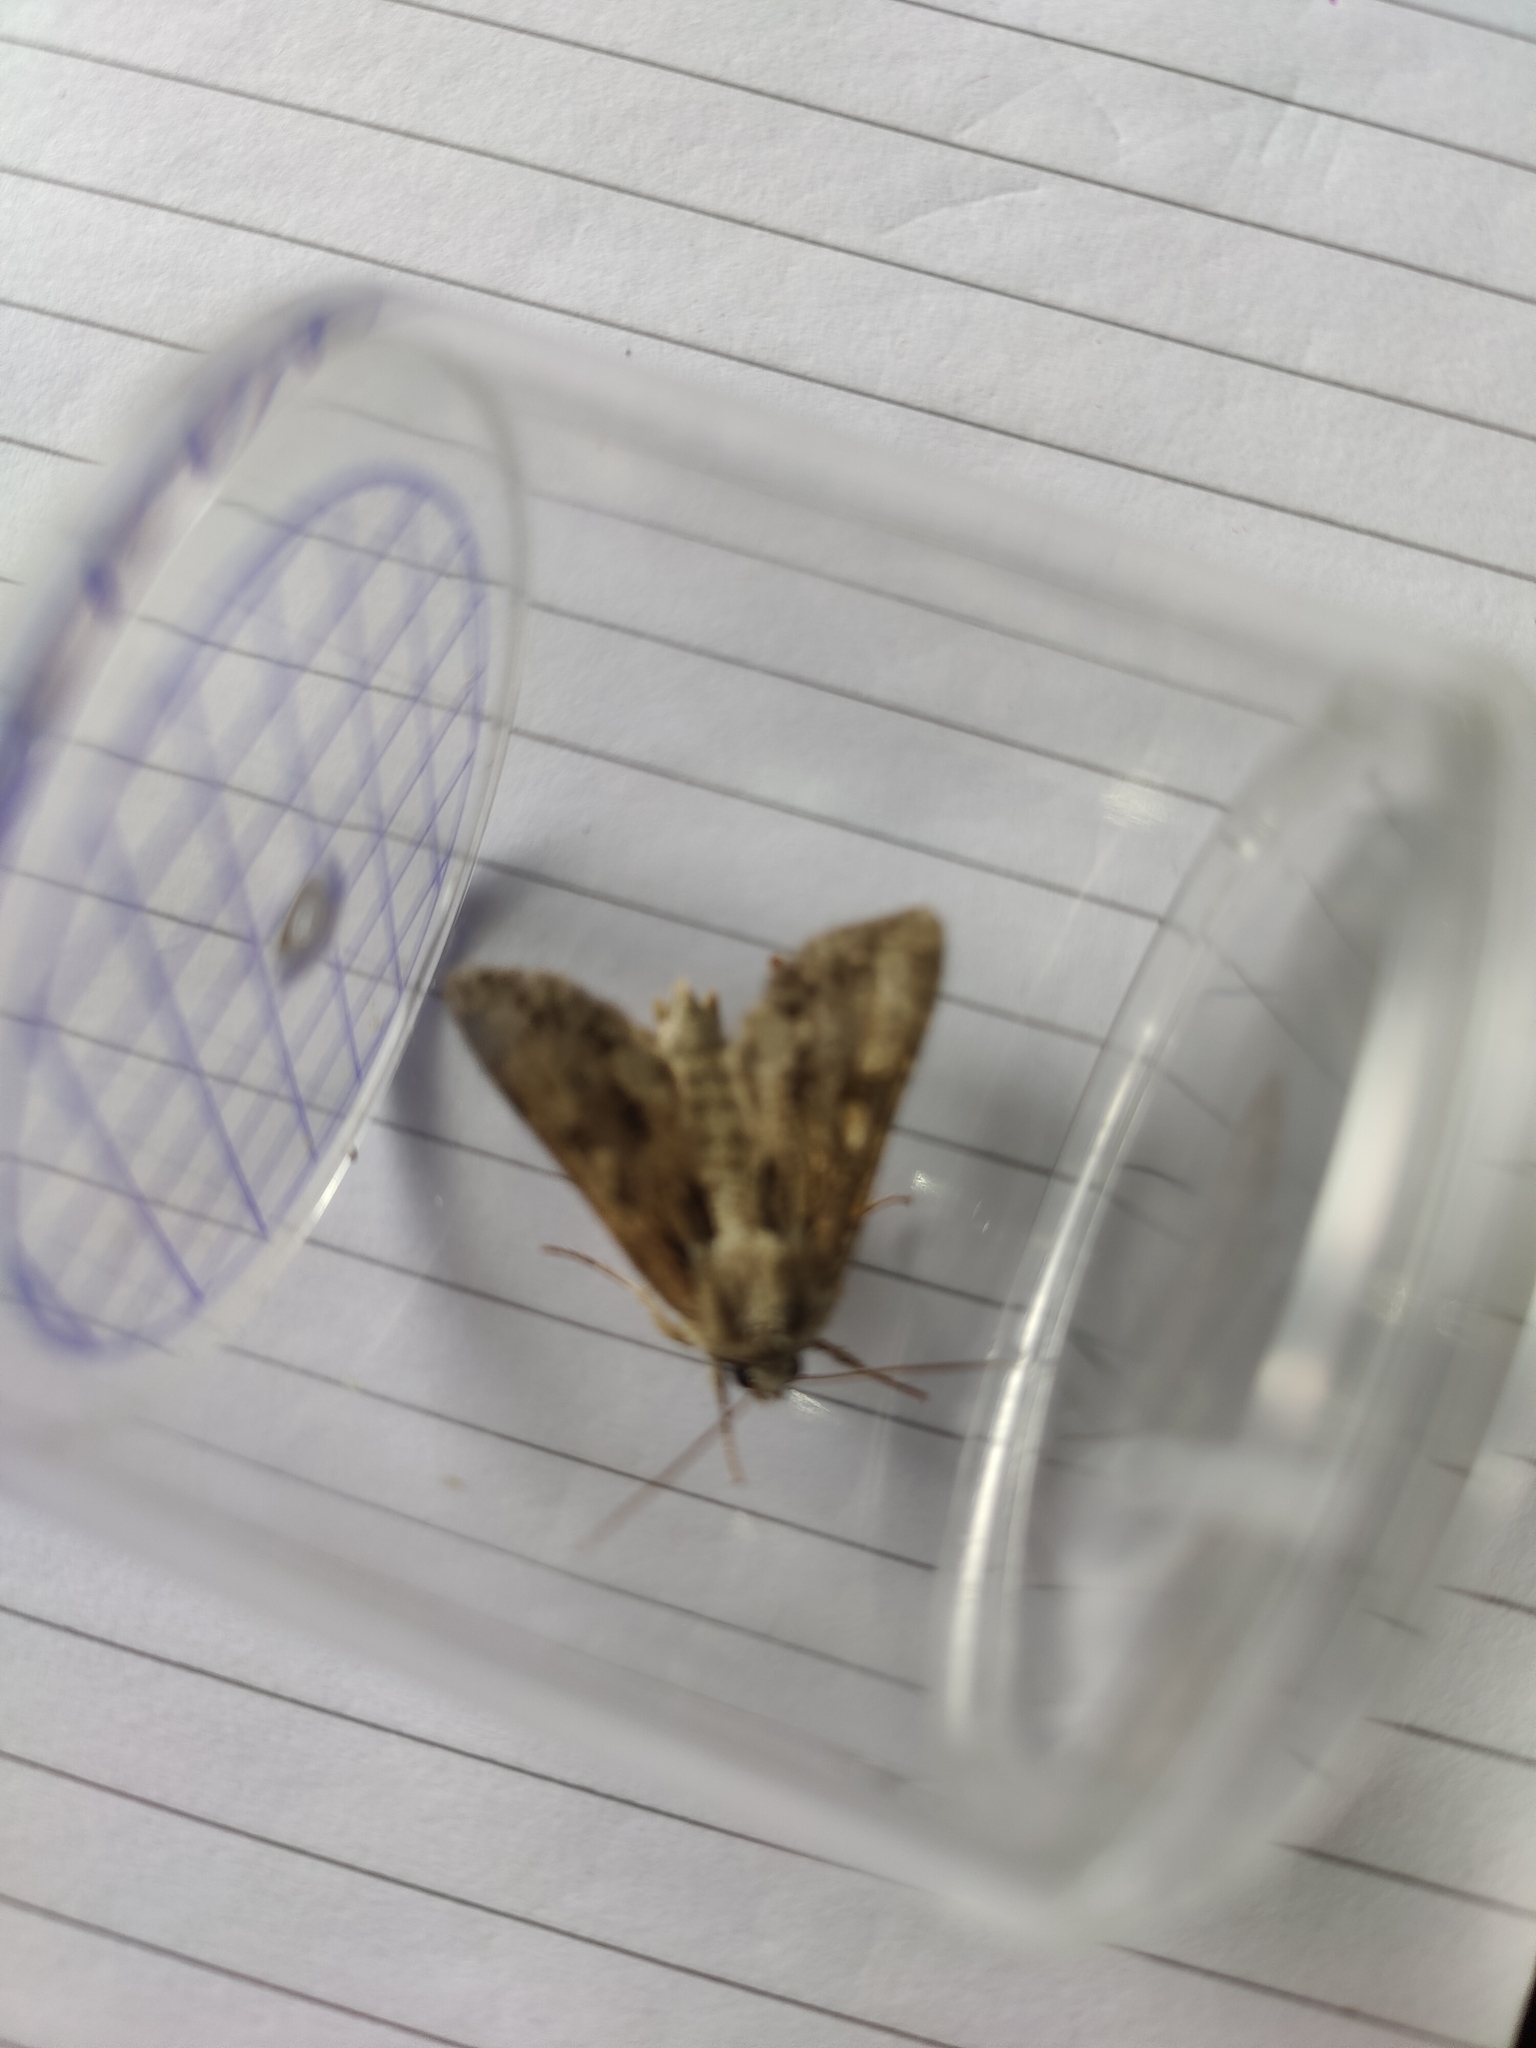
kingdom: Animalia
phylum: Arthropoda
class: Insecta
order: Lepidoptera
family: Noctuidae
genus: Apamea
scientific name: Apamea monoglypha
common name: Dark arches
